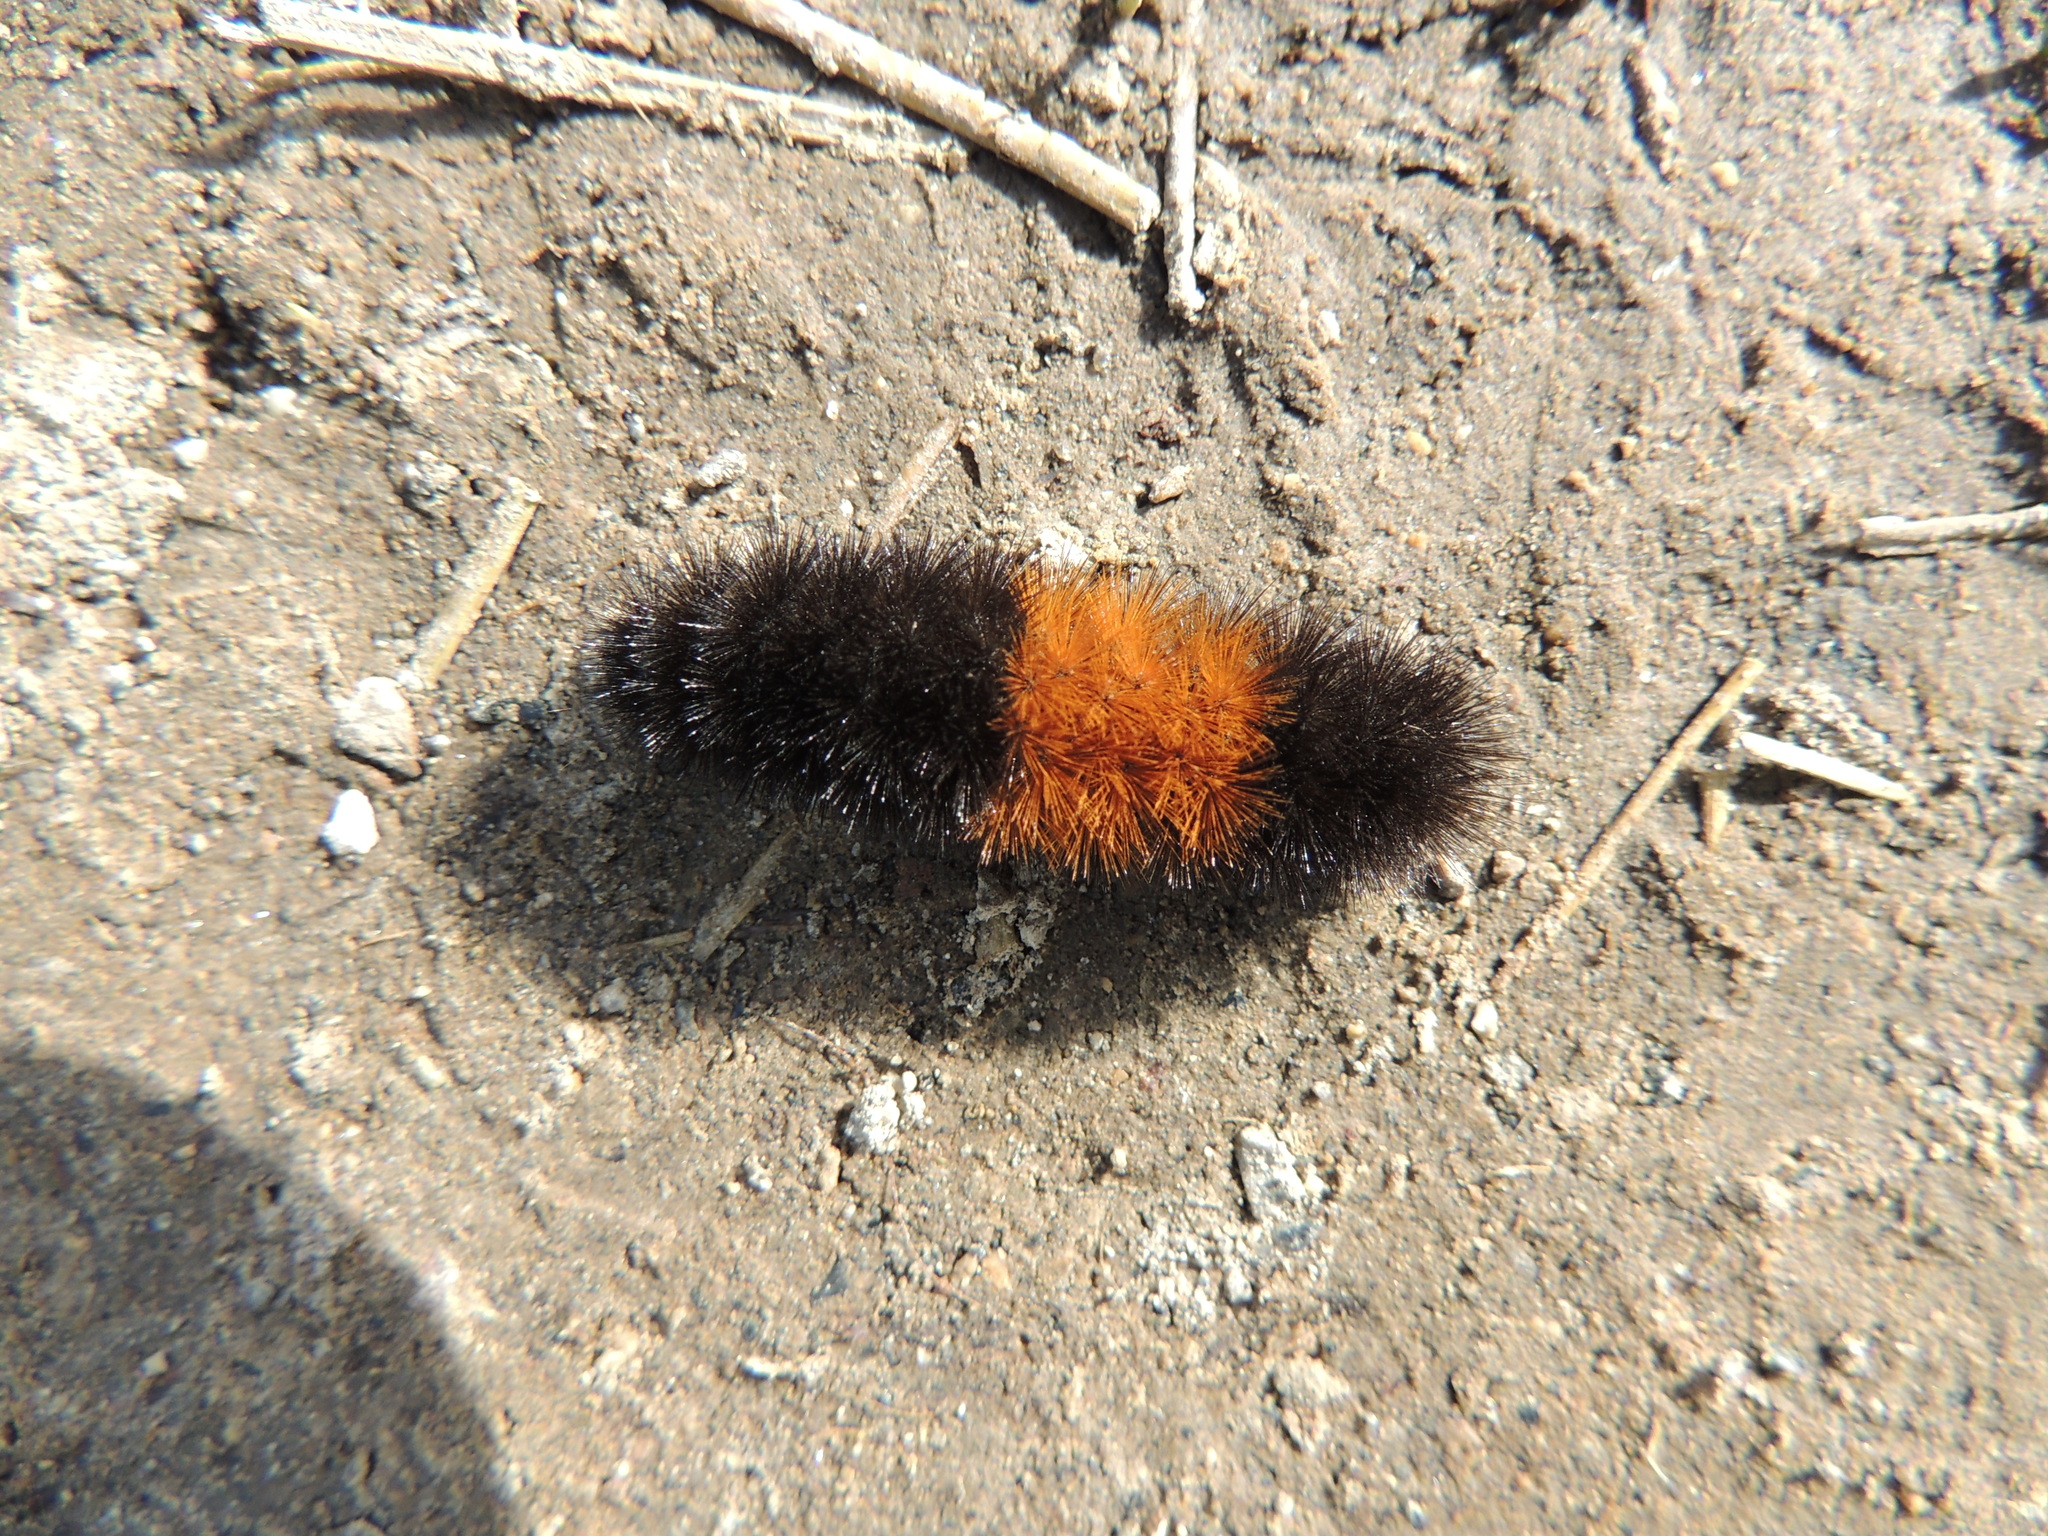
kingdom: Animalia
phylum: Arthropoda
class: Insecta
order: Lepidoptera
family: Erebidae
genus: Pyrrharctia
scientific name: Pyrrharctia isabella
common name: Isabella tiger moth
